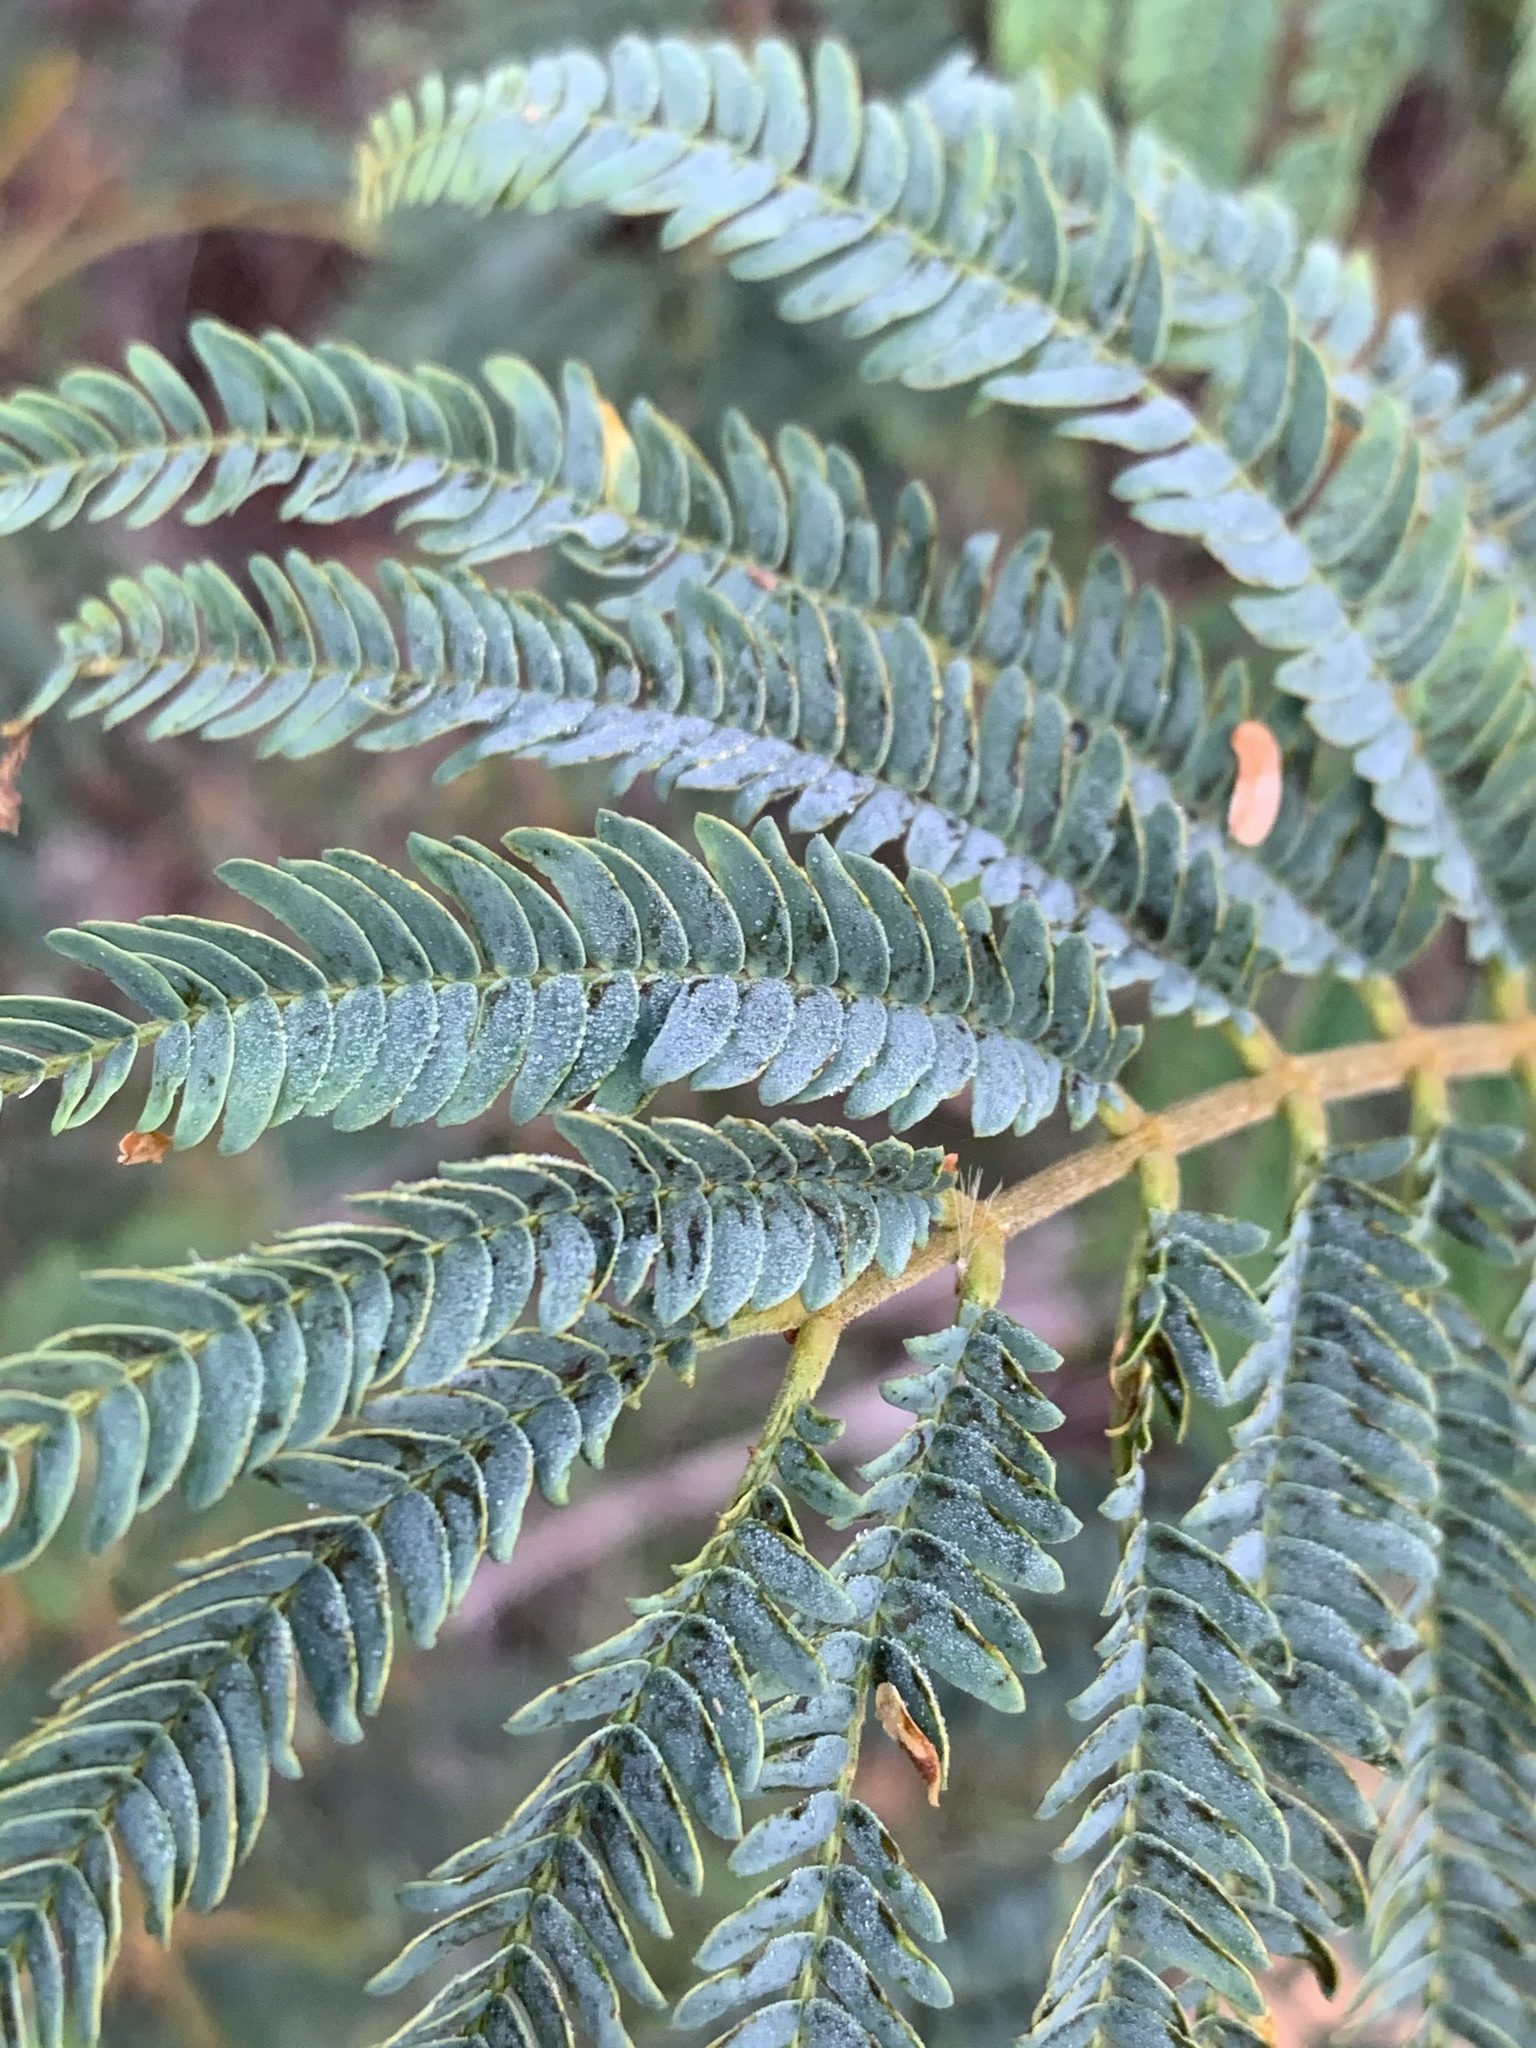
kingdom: Plantae
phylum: Tracheophyta
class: Magnoliopsida
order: Fabales
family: Fabaceae
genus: Paraserianthes
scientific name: Paraserianthes lophantha
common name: Plume albizia
